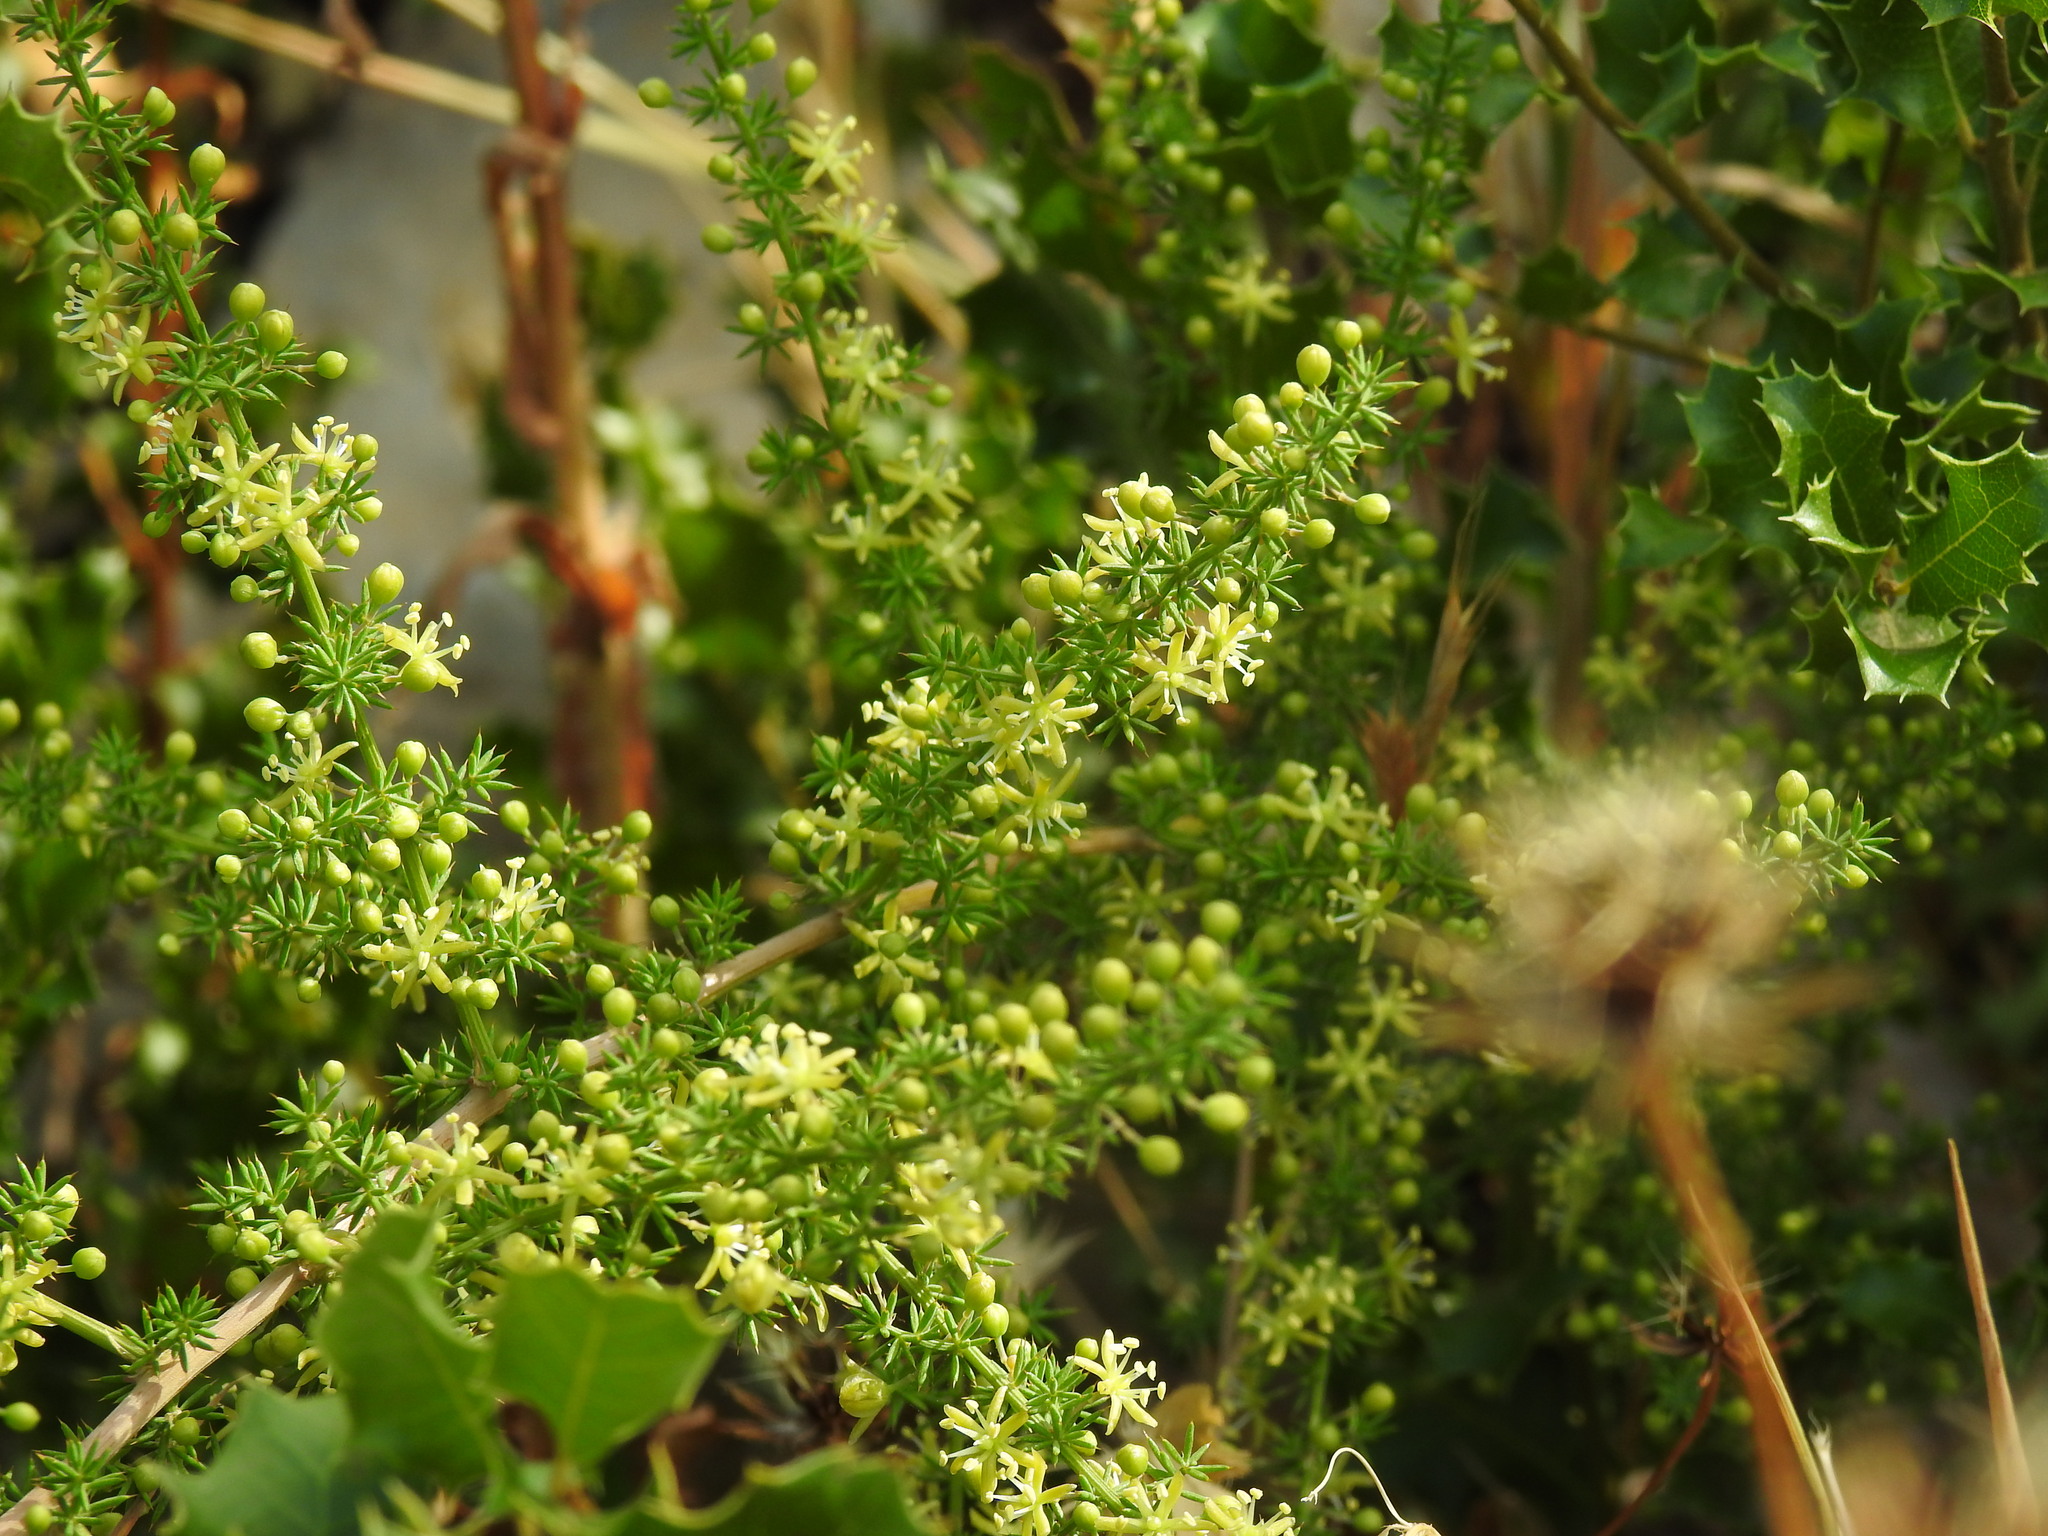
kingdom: Plantae
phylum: Tracheophyta
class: Liliopsida
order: Asparagales
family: Asparagaceae
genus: Asparagus
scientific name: Asparagus acutifolius
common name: Wild asparagus
